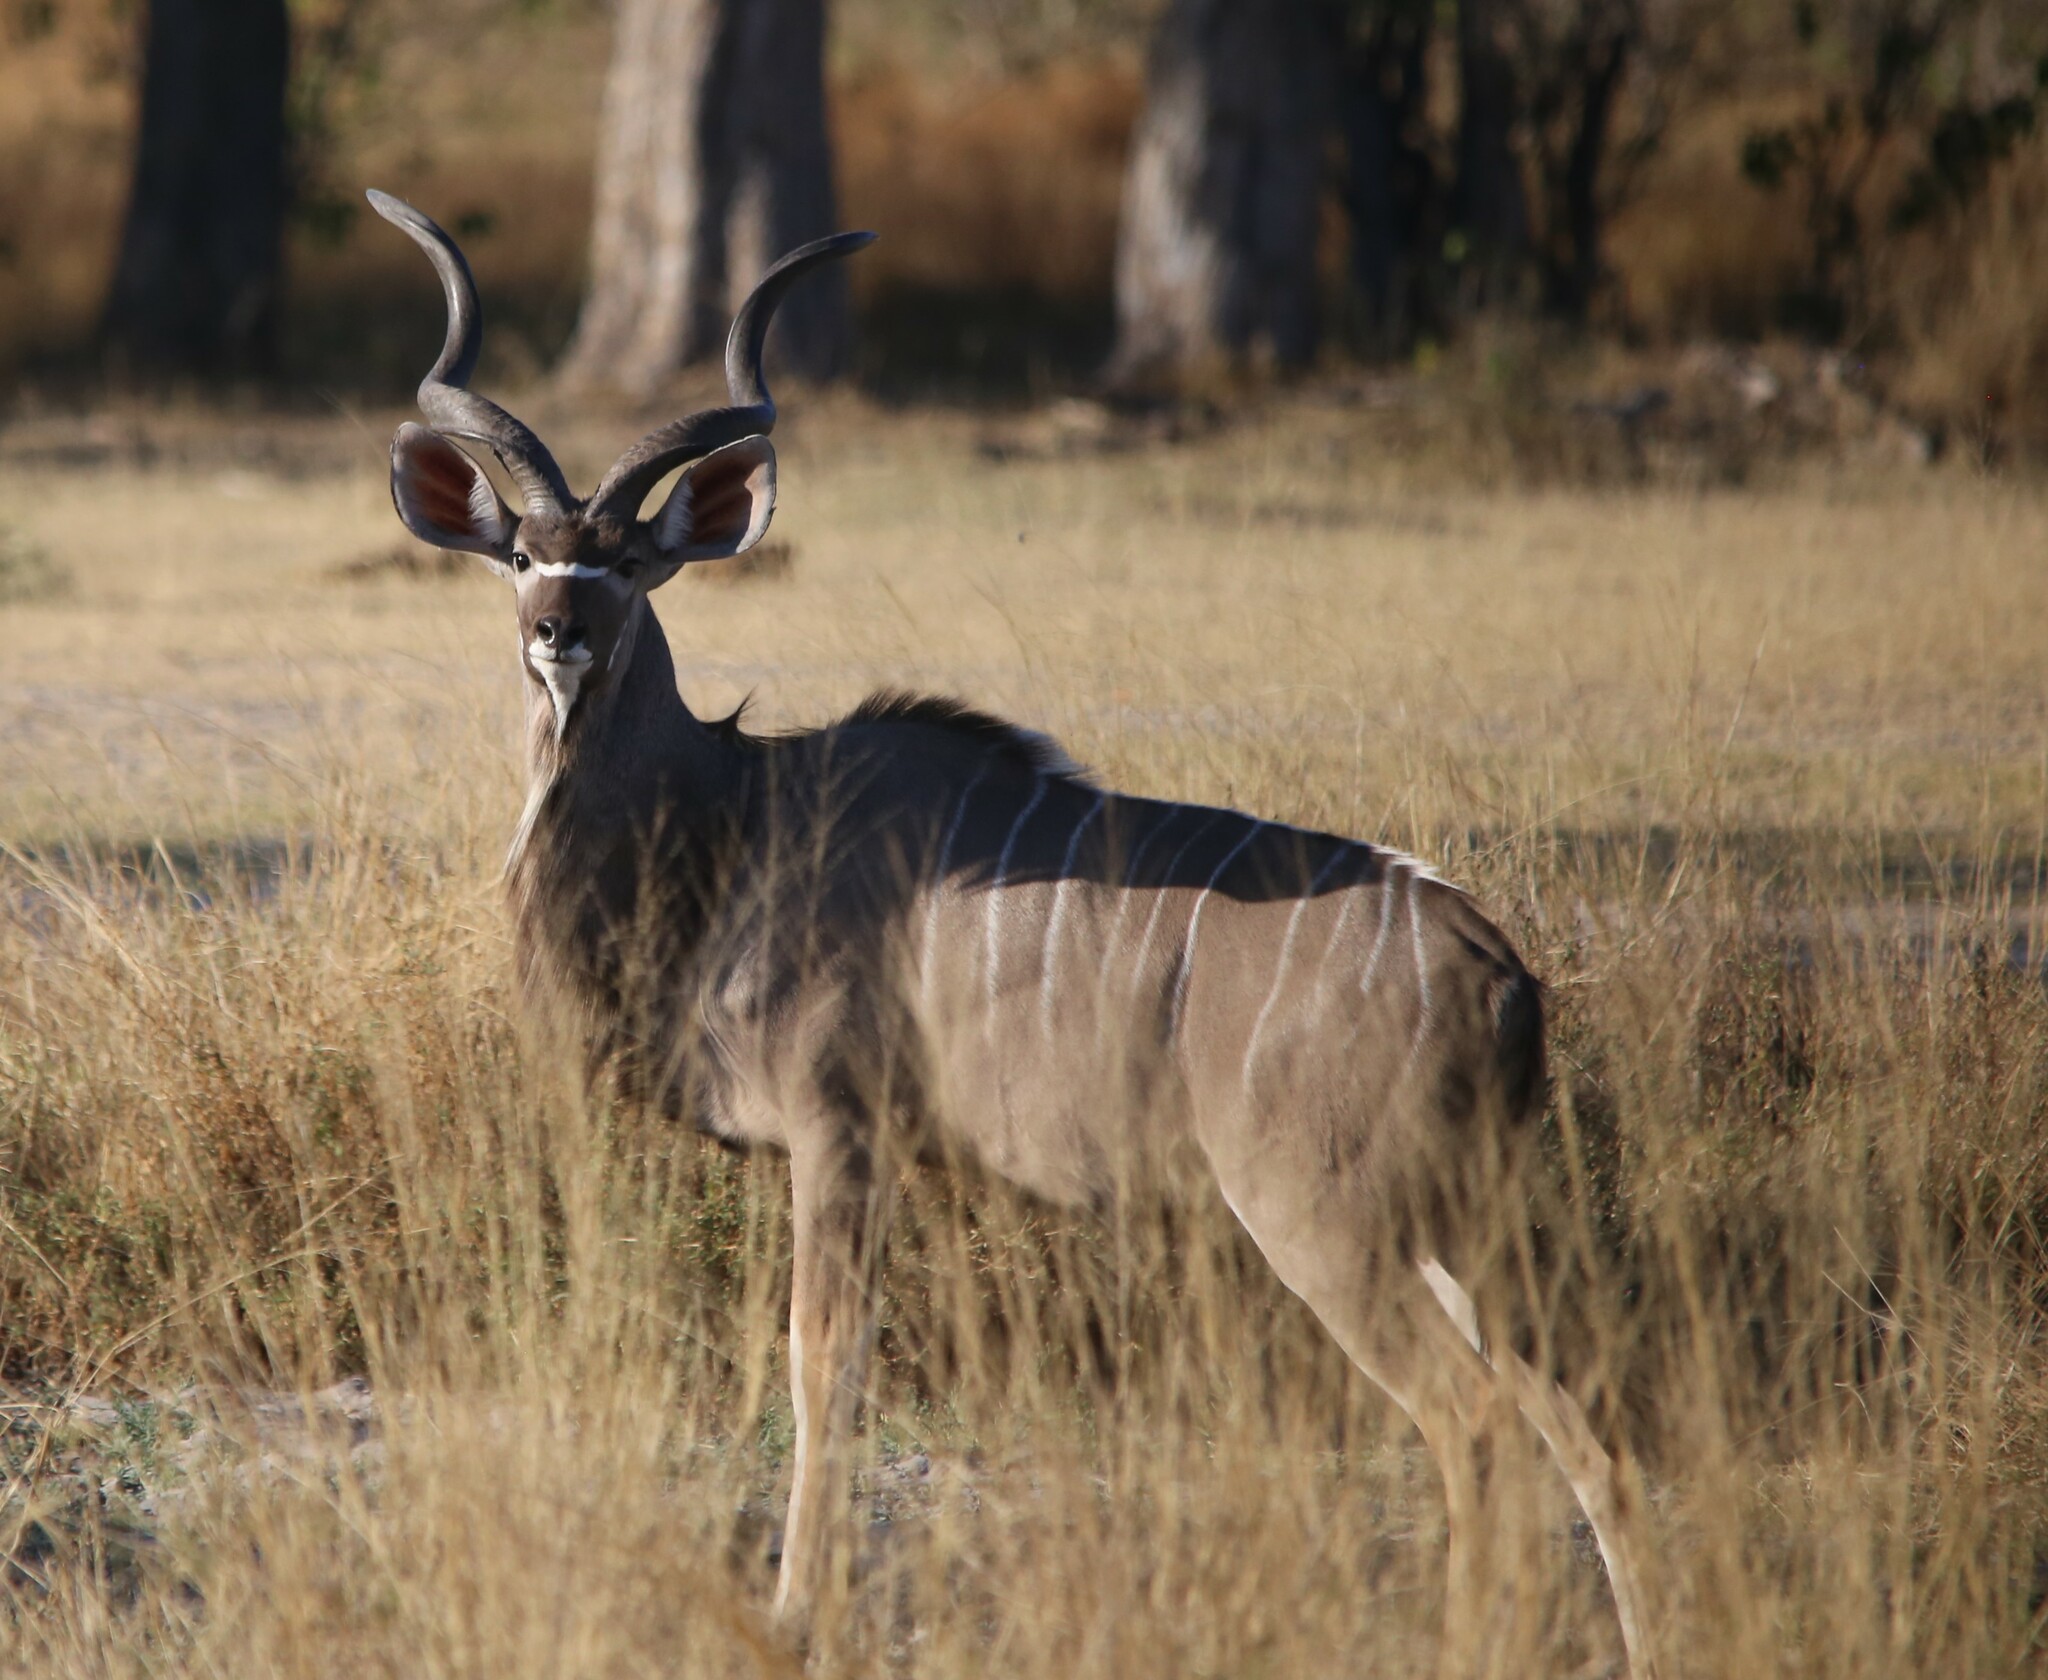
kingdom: Animalia
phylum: Chordata
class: Mammalia
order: Artiodactyla
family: Bovidae
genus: Tragelaphus
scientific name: Tragelaphus strepsiceros
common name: Greater kudu
